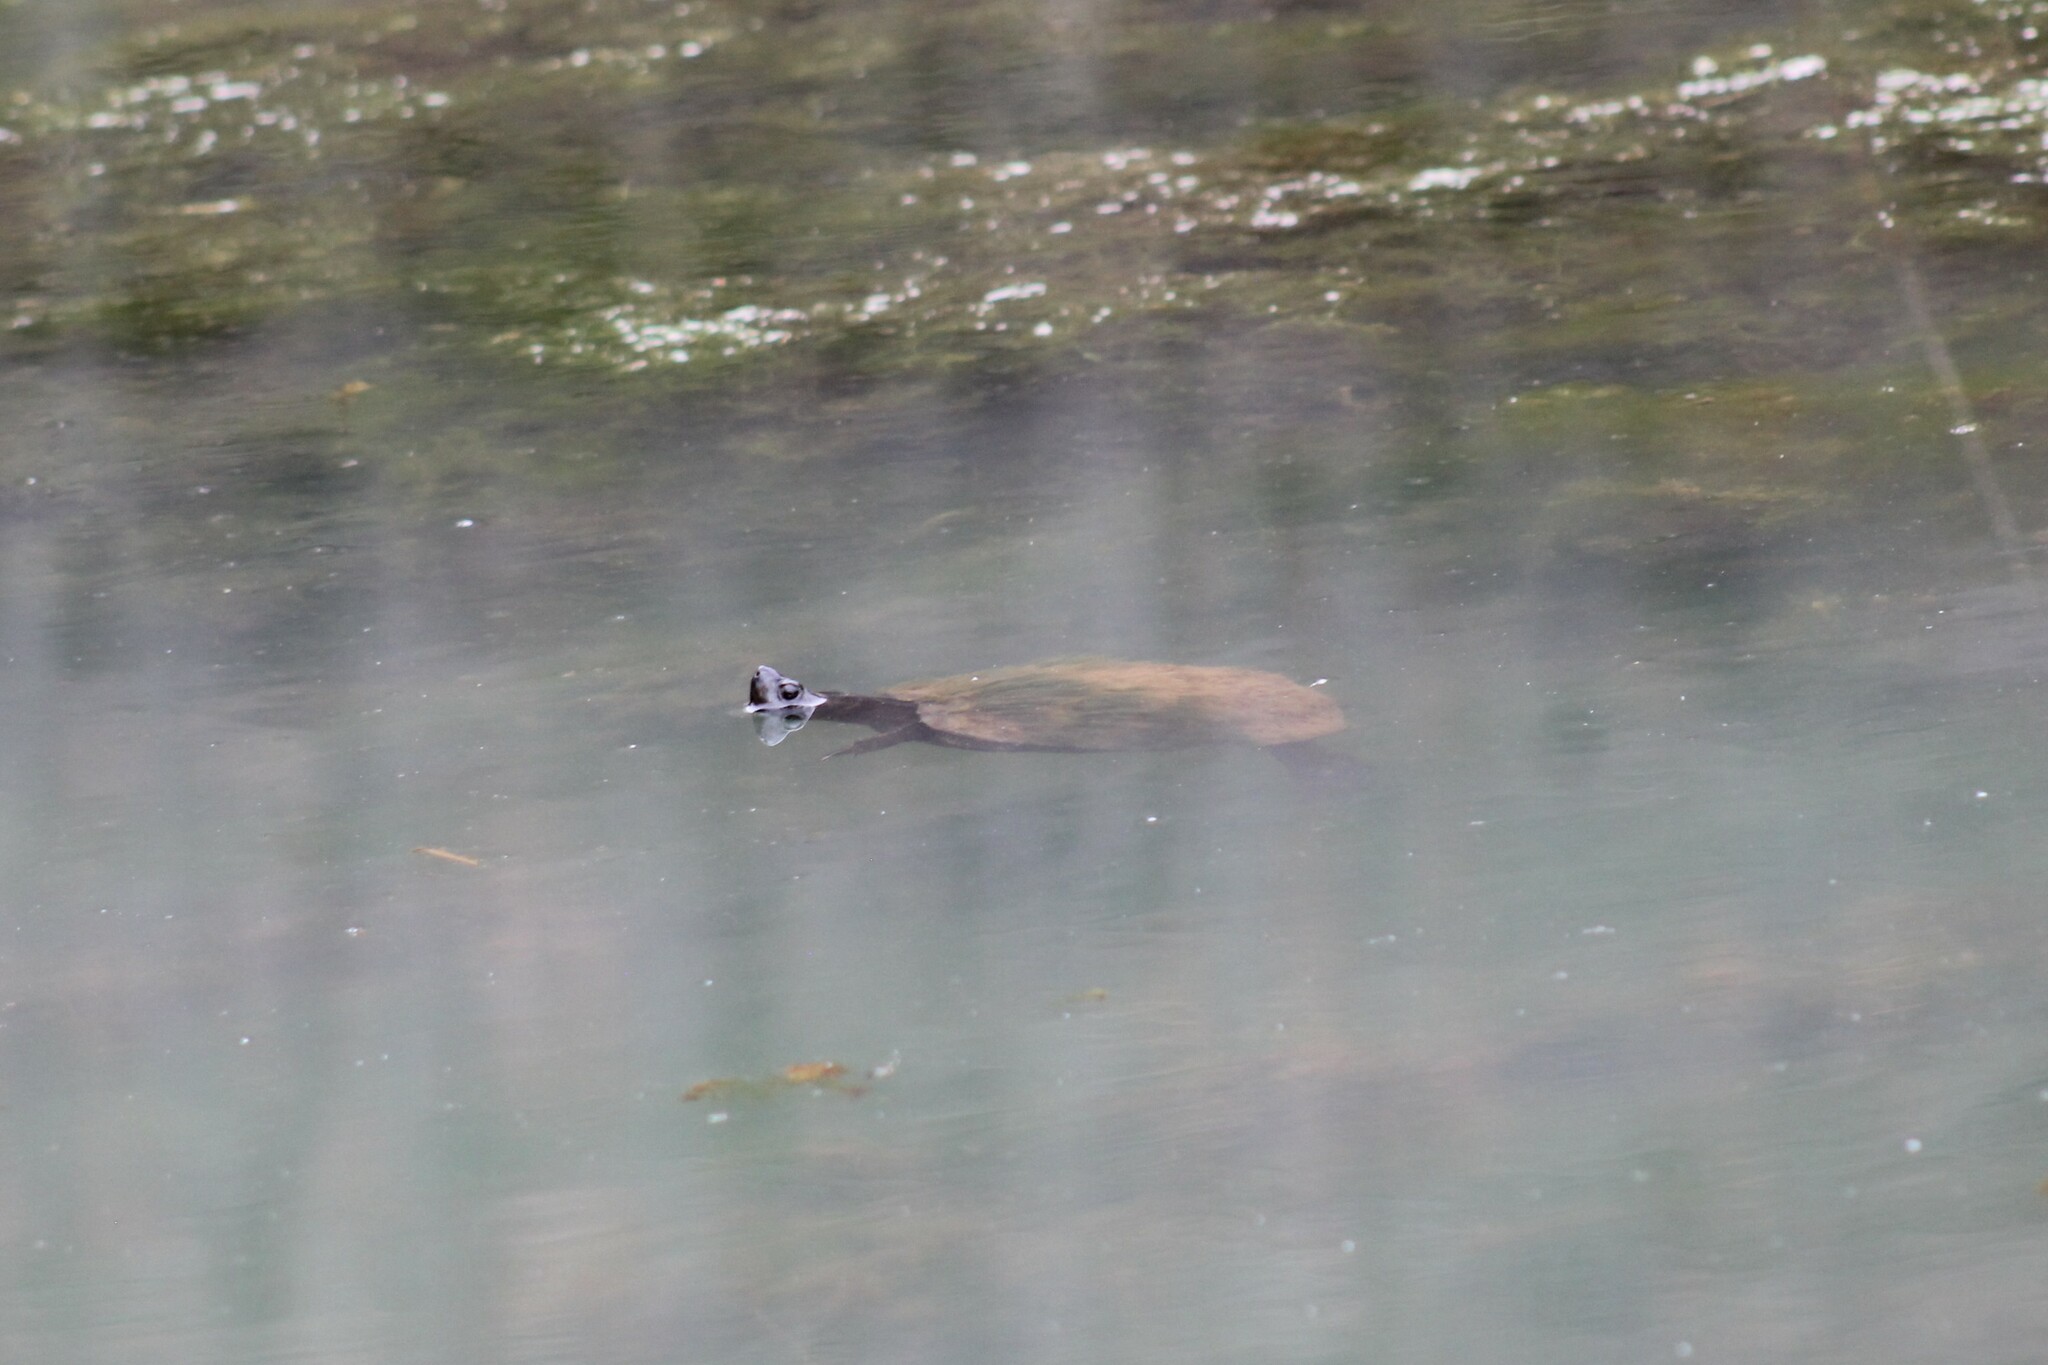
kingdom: Animalia
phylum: Chordata
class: Testudines
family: Emydidae
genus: Trachemys
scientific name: Trachemys scripta
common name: Slider
